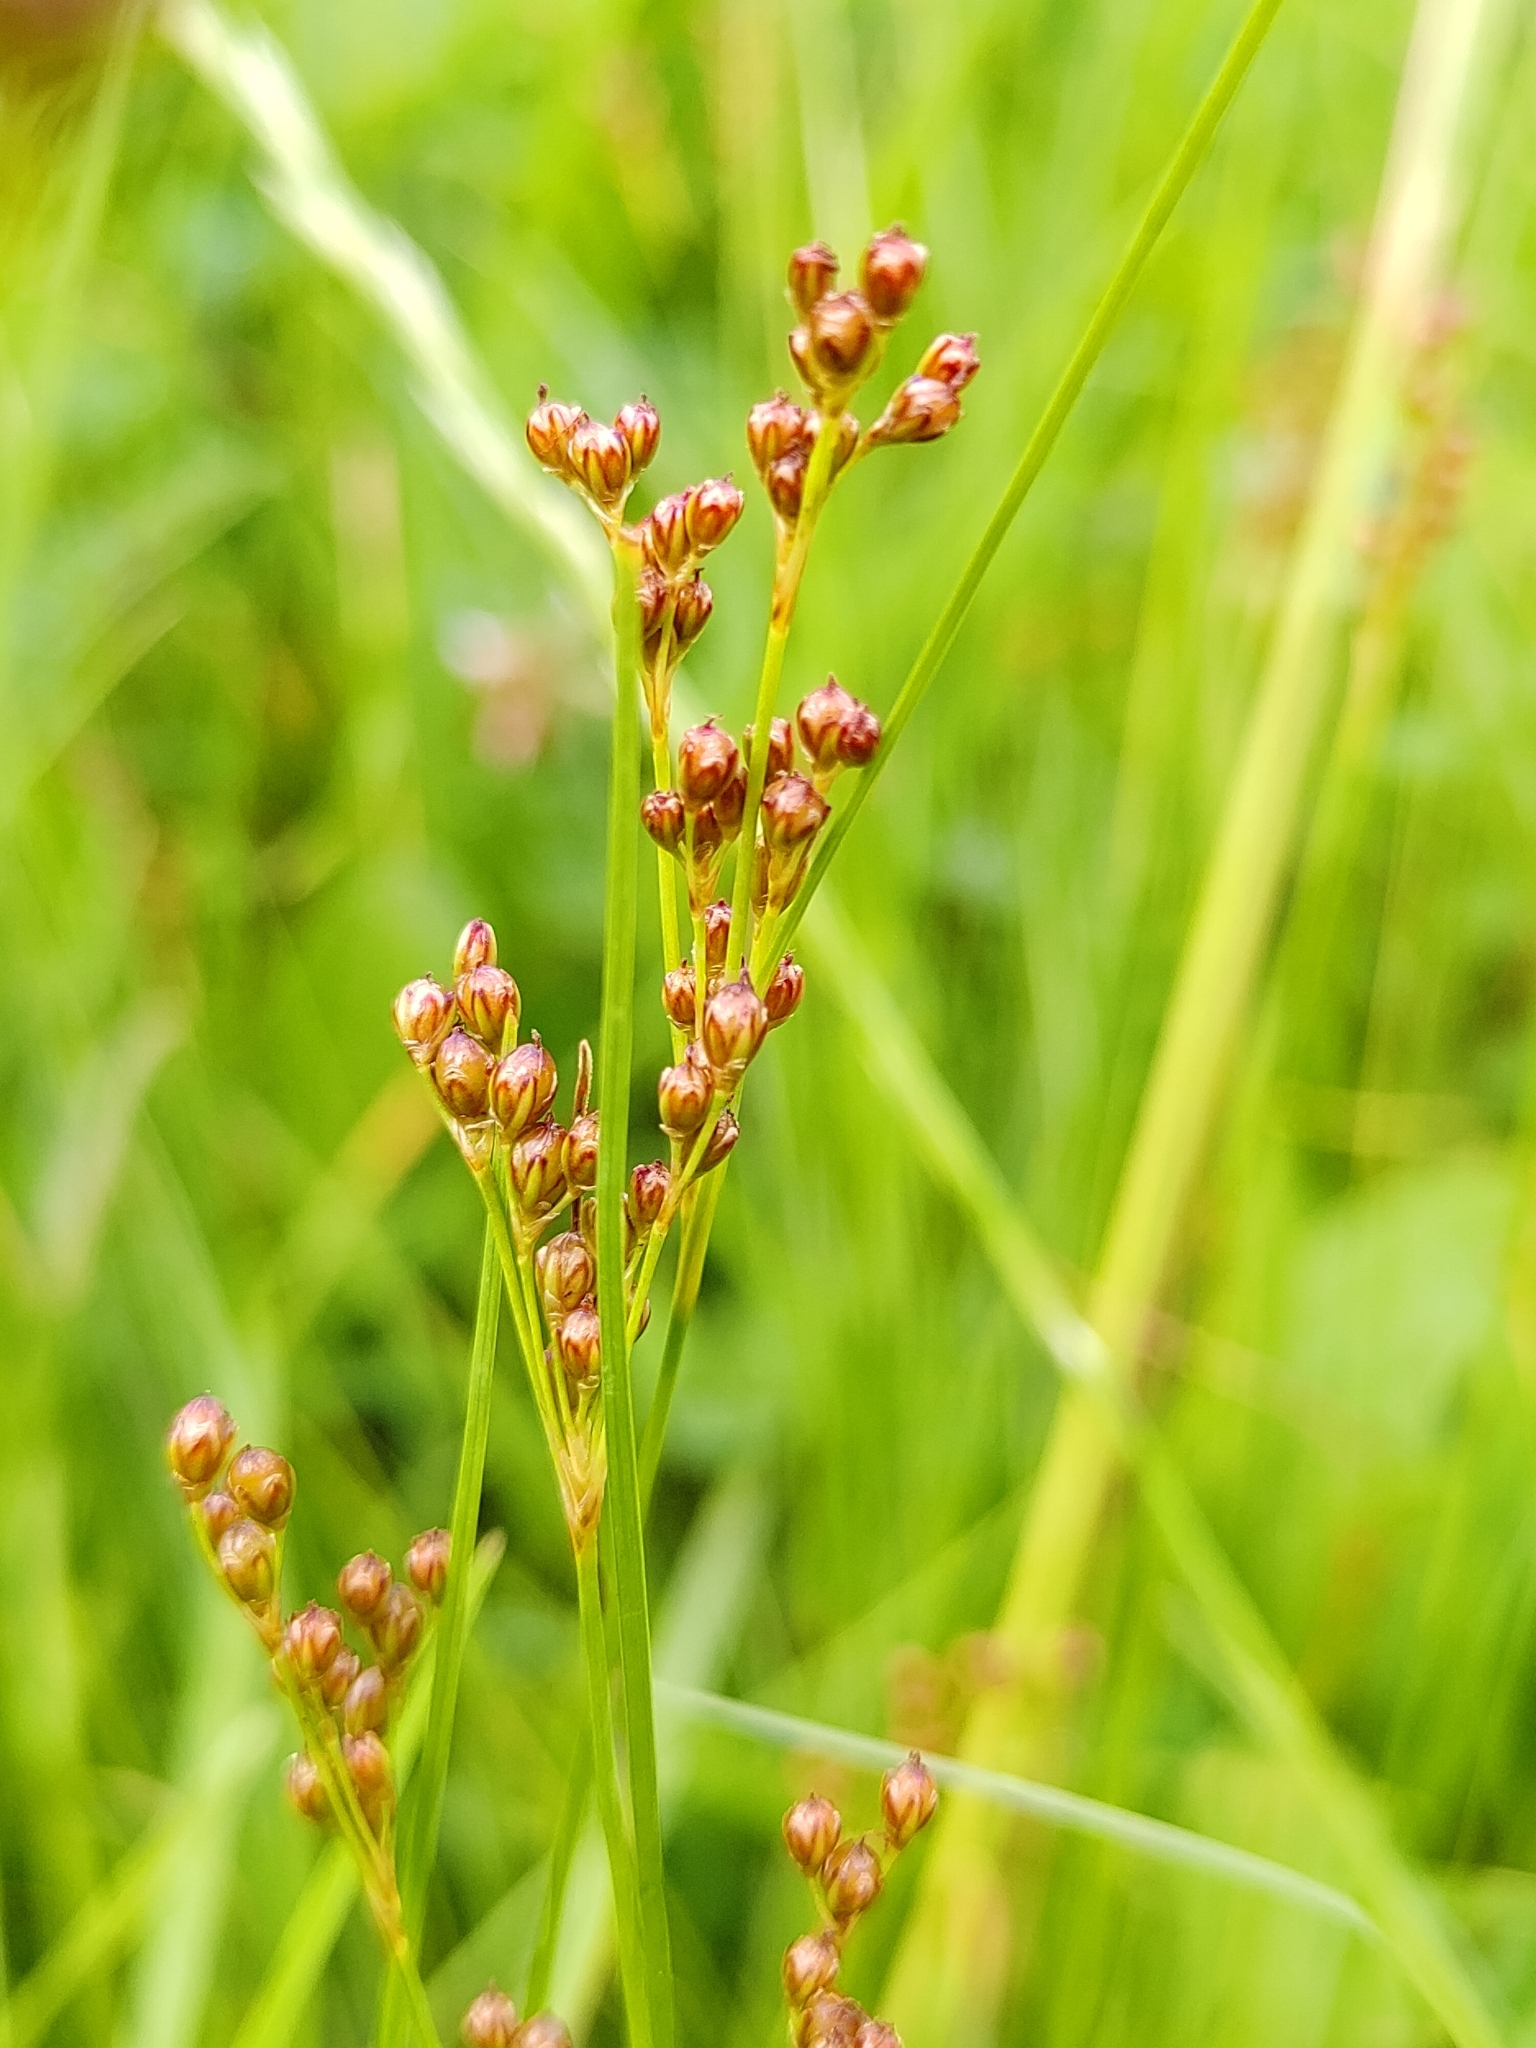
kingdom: Plantae
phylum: Tracheophyta
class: Liliopsida
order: Poales
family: Juncaceae
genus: Juncus
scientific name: Juncus compressus
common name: Round-fruited rush
